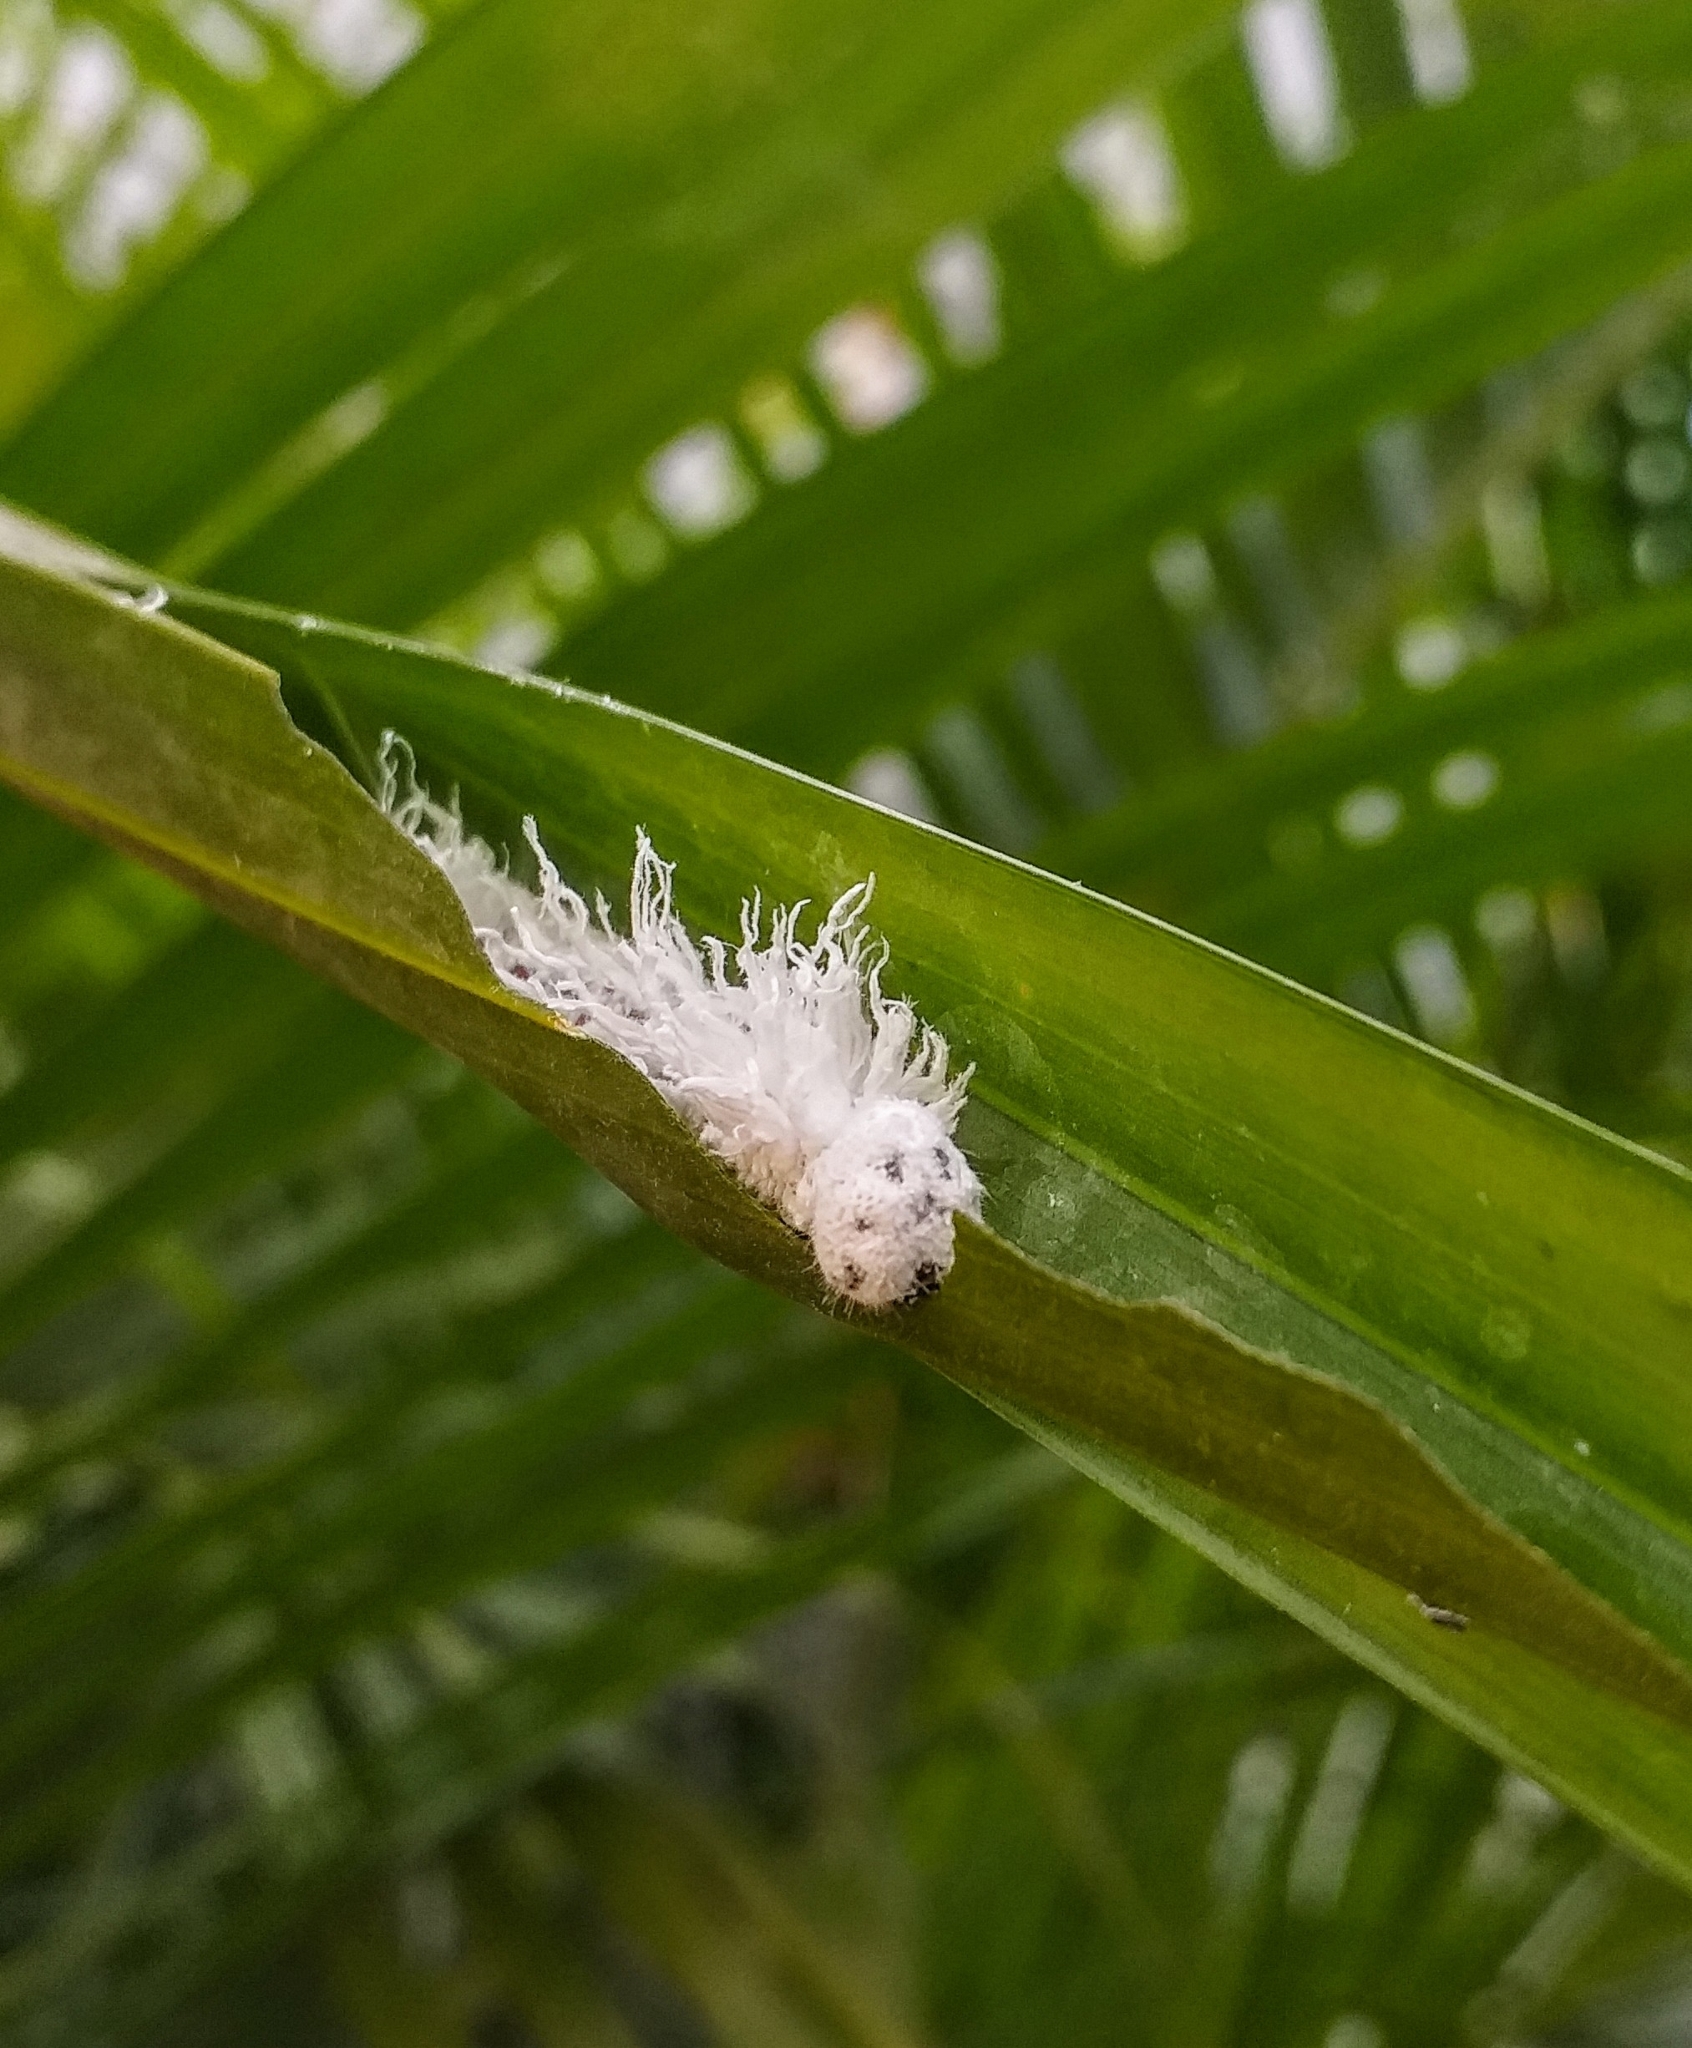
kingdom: Animalia
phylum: Arthropoda
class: Insecta
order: Lepidoptera
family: Hesperiidae
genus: Gangara
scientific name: Gangara thyrsis
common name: Giant redeye
